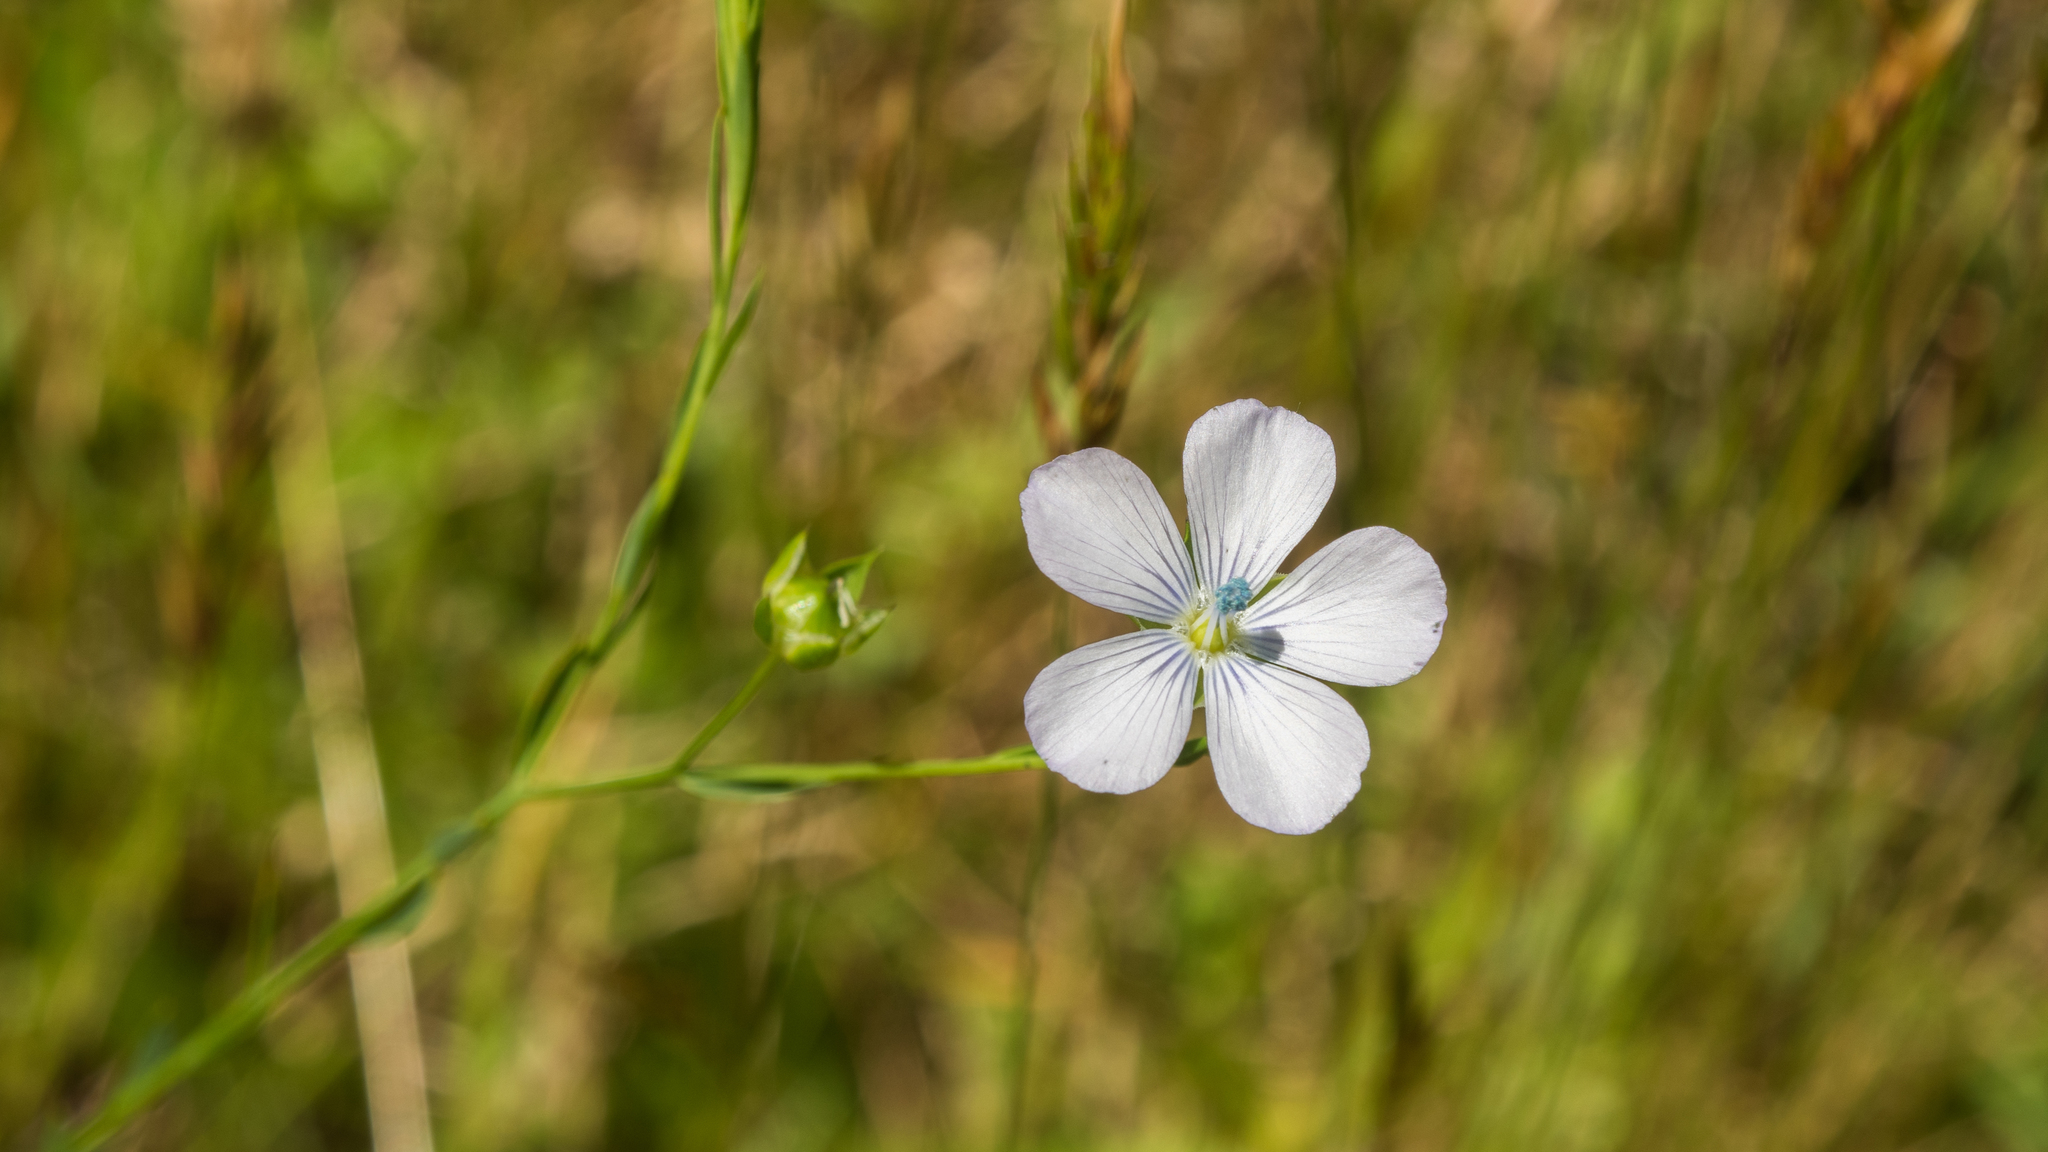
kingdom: Plantae
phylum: Tracheophyta
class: Magnoliopsida
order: Malpighiales
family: Linaceae
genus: Linum
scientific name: Linum usitatissimum
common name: Flax
